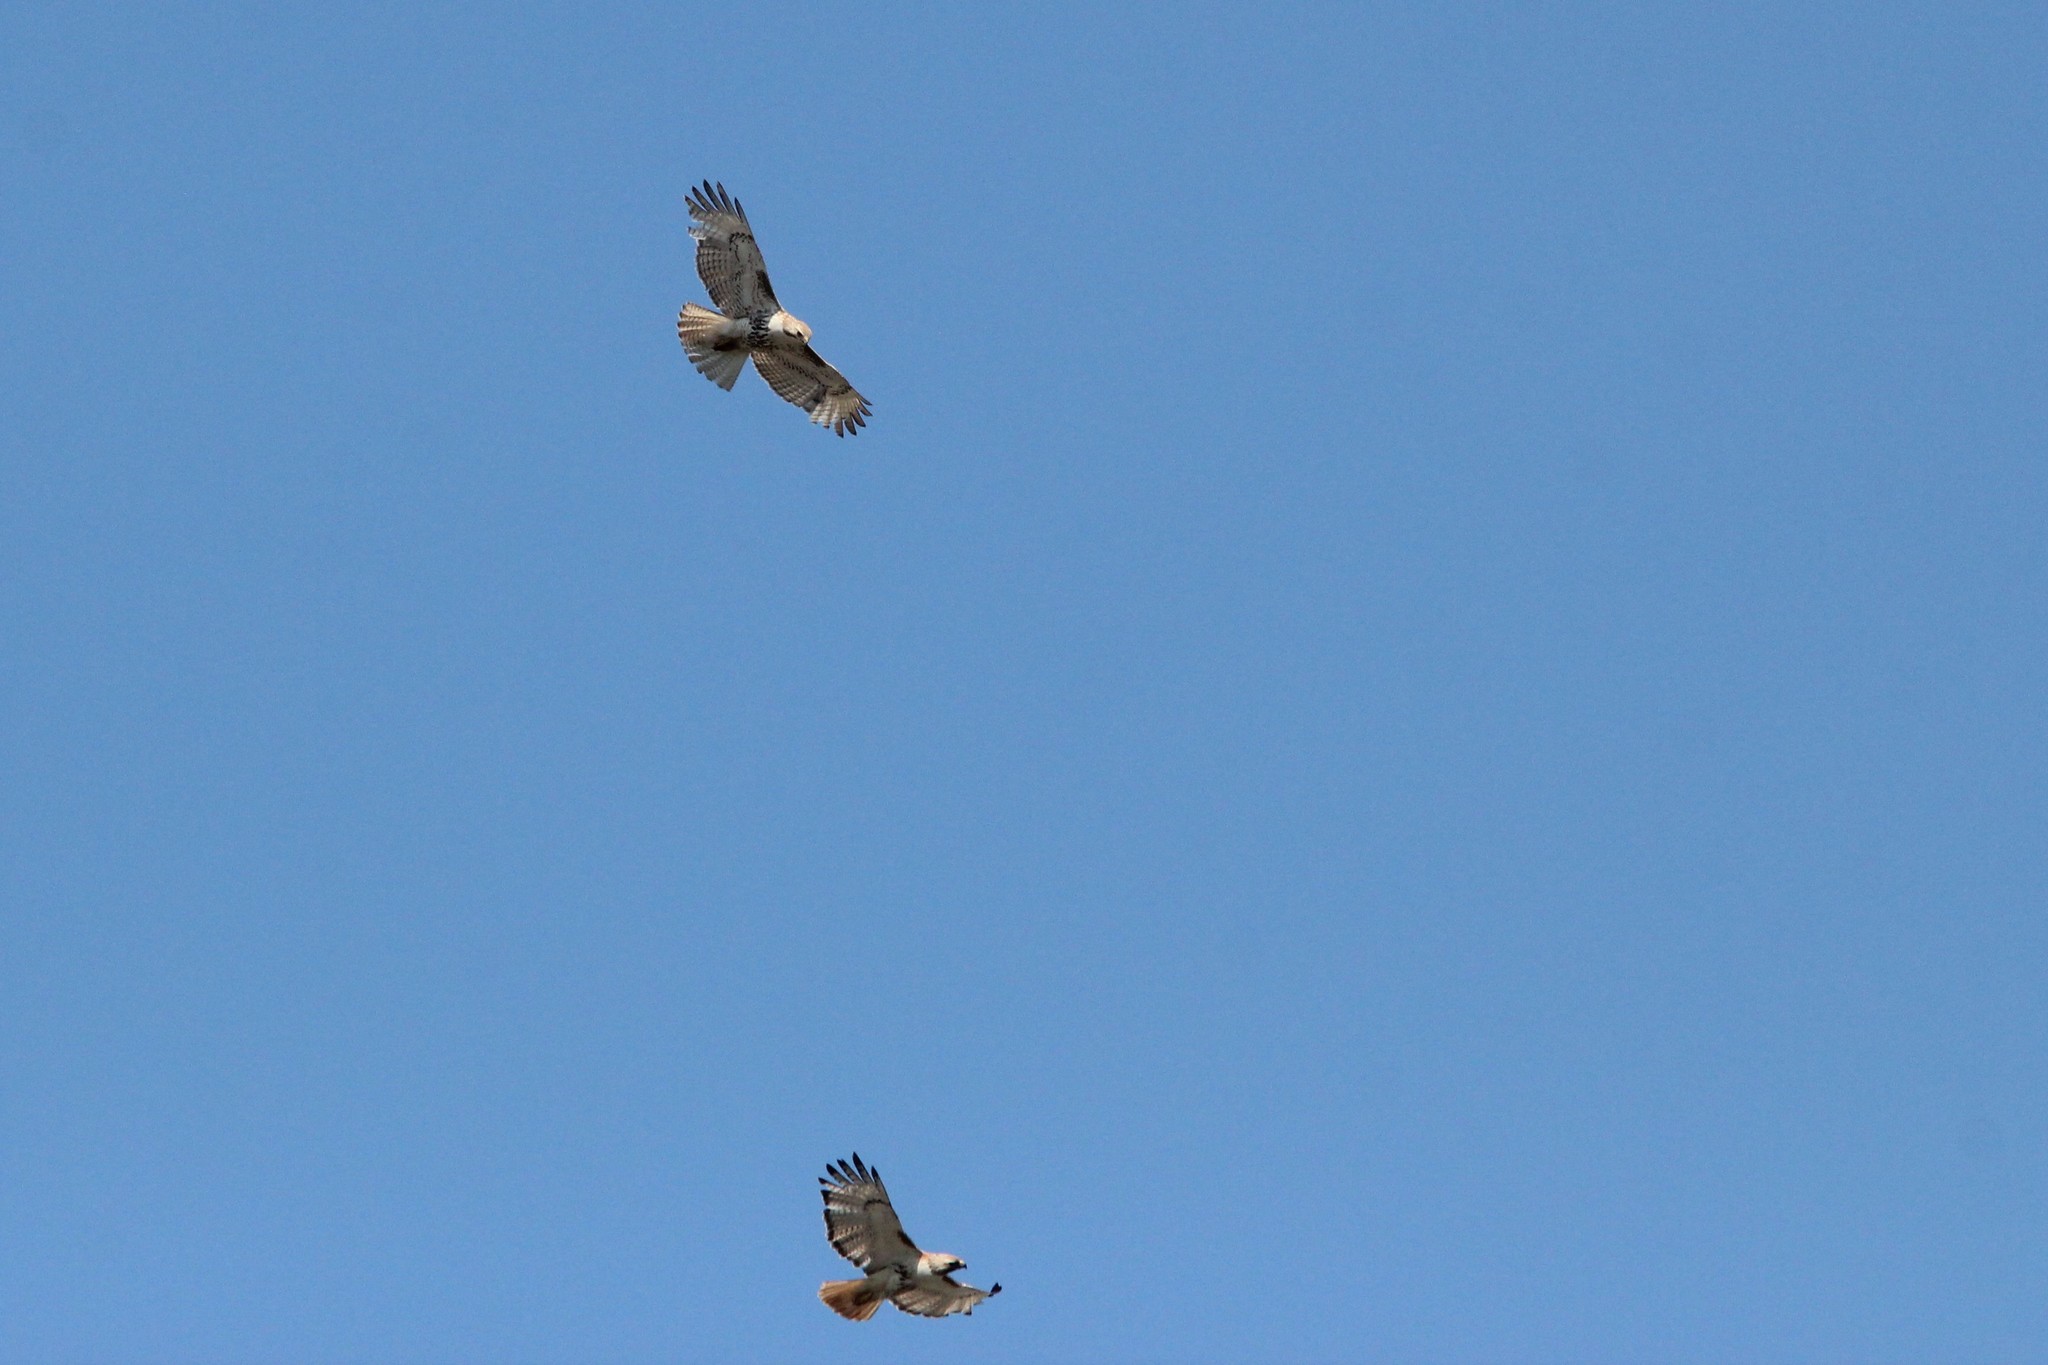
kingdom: Animalia
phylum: Chordata
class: Aves
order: Accipitriformes
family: Accipitridae
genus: Buteo
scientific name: Buteo jamaicensis
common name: Red-tailed hawk
